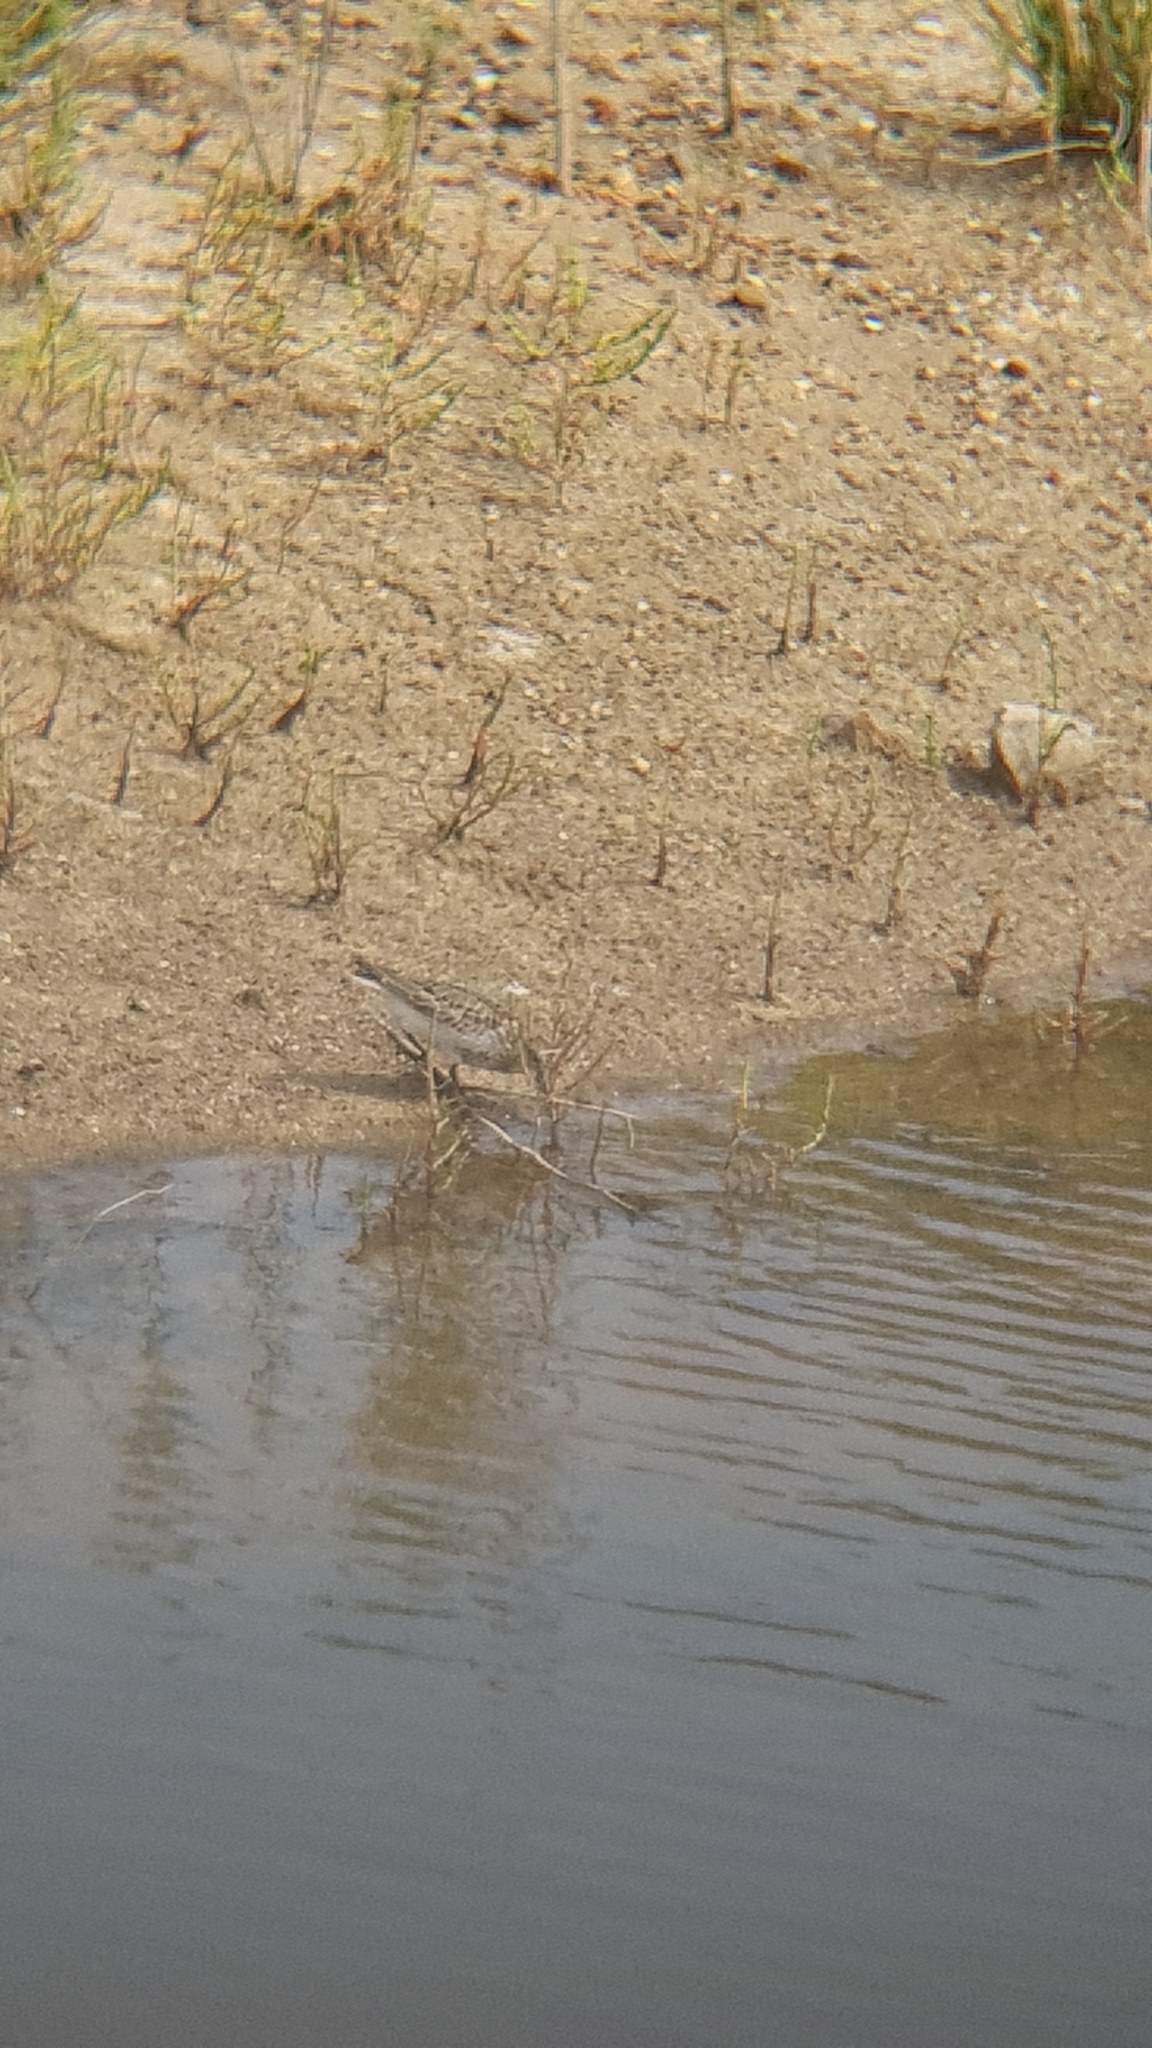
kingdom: Animalia
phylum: Chordata
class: Aves
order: Charadriiformes
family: Scolopacidae
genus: Calidris
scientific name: Calidris alpina
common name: Dunlin
